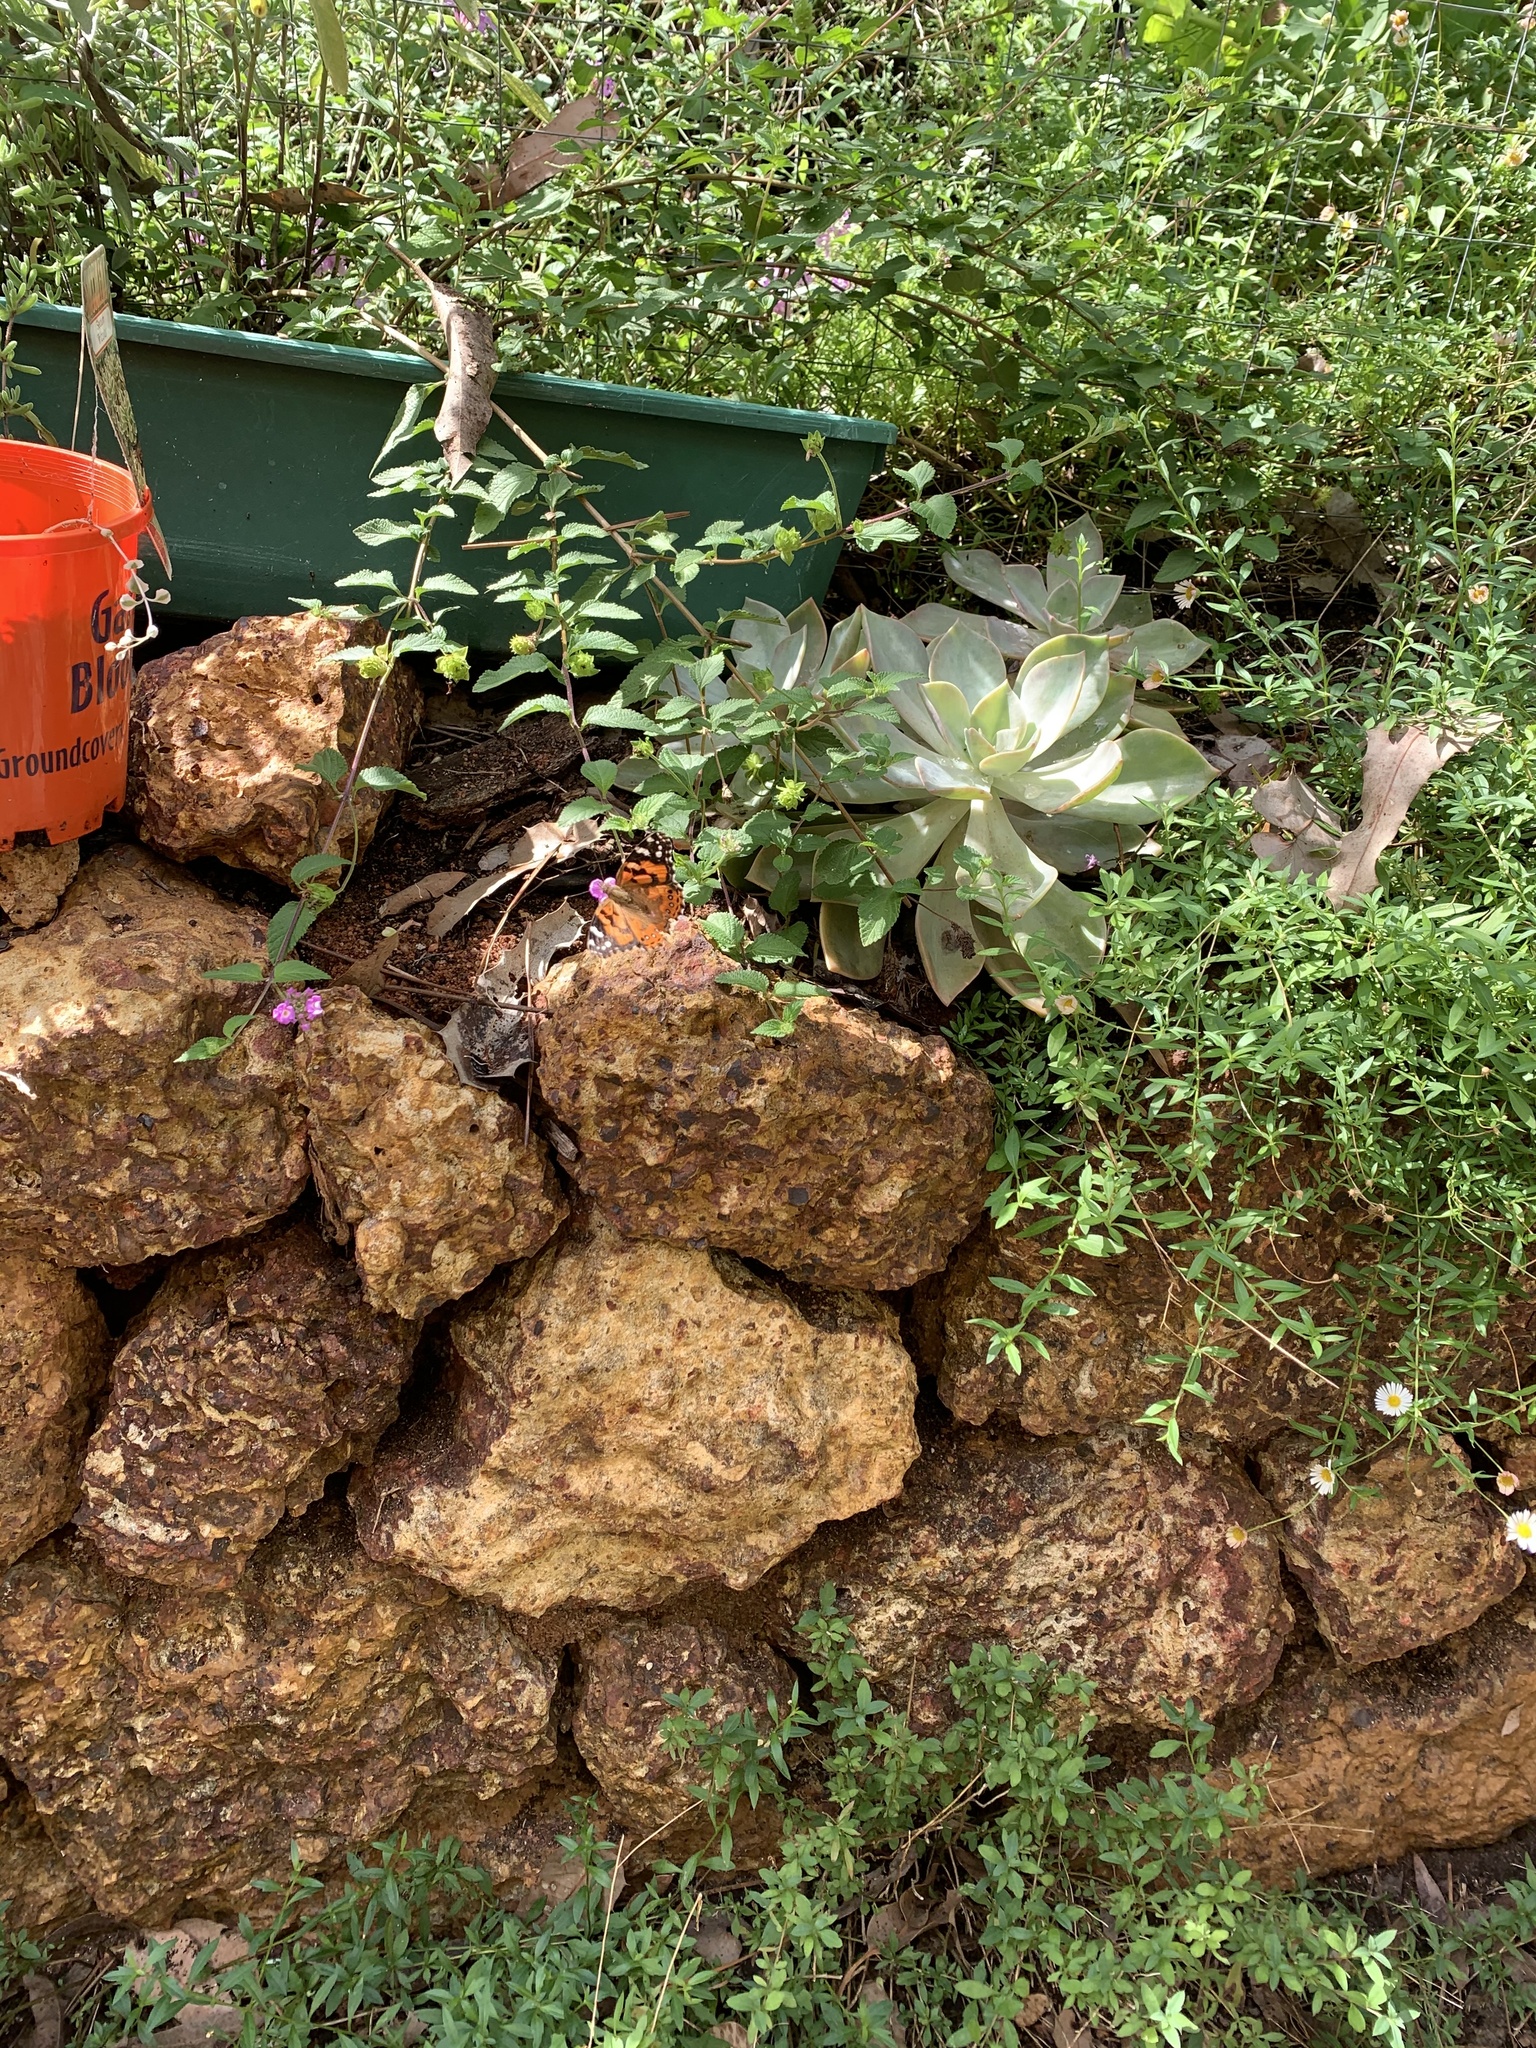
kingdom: Animalia
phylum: Arthropoda
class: Insecta
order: Lepidoptera
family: Nymphalidae
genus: Vanessa
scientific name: Vanessa kershawi
